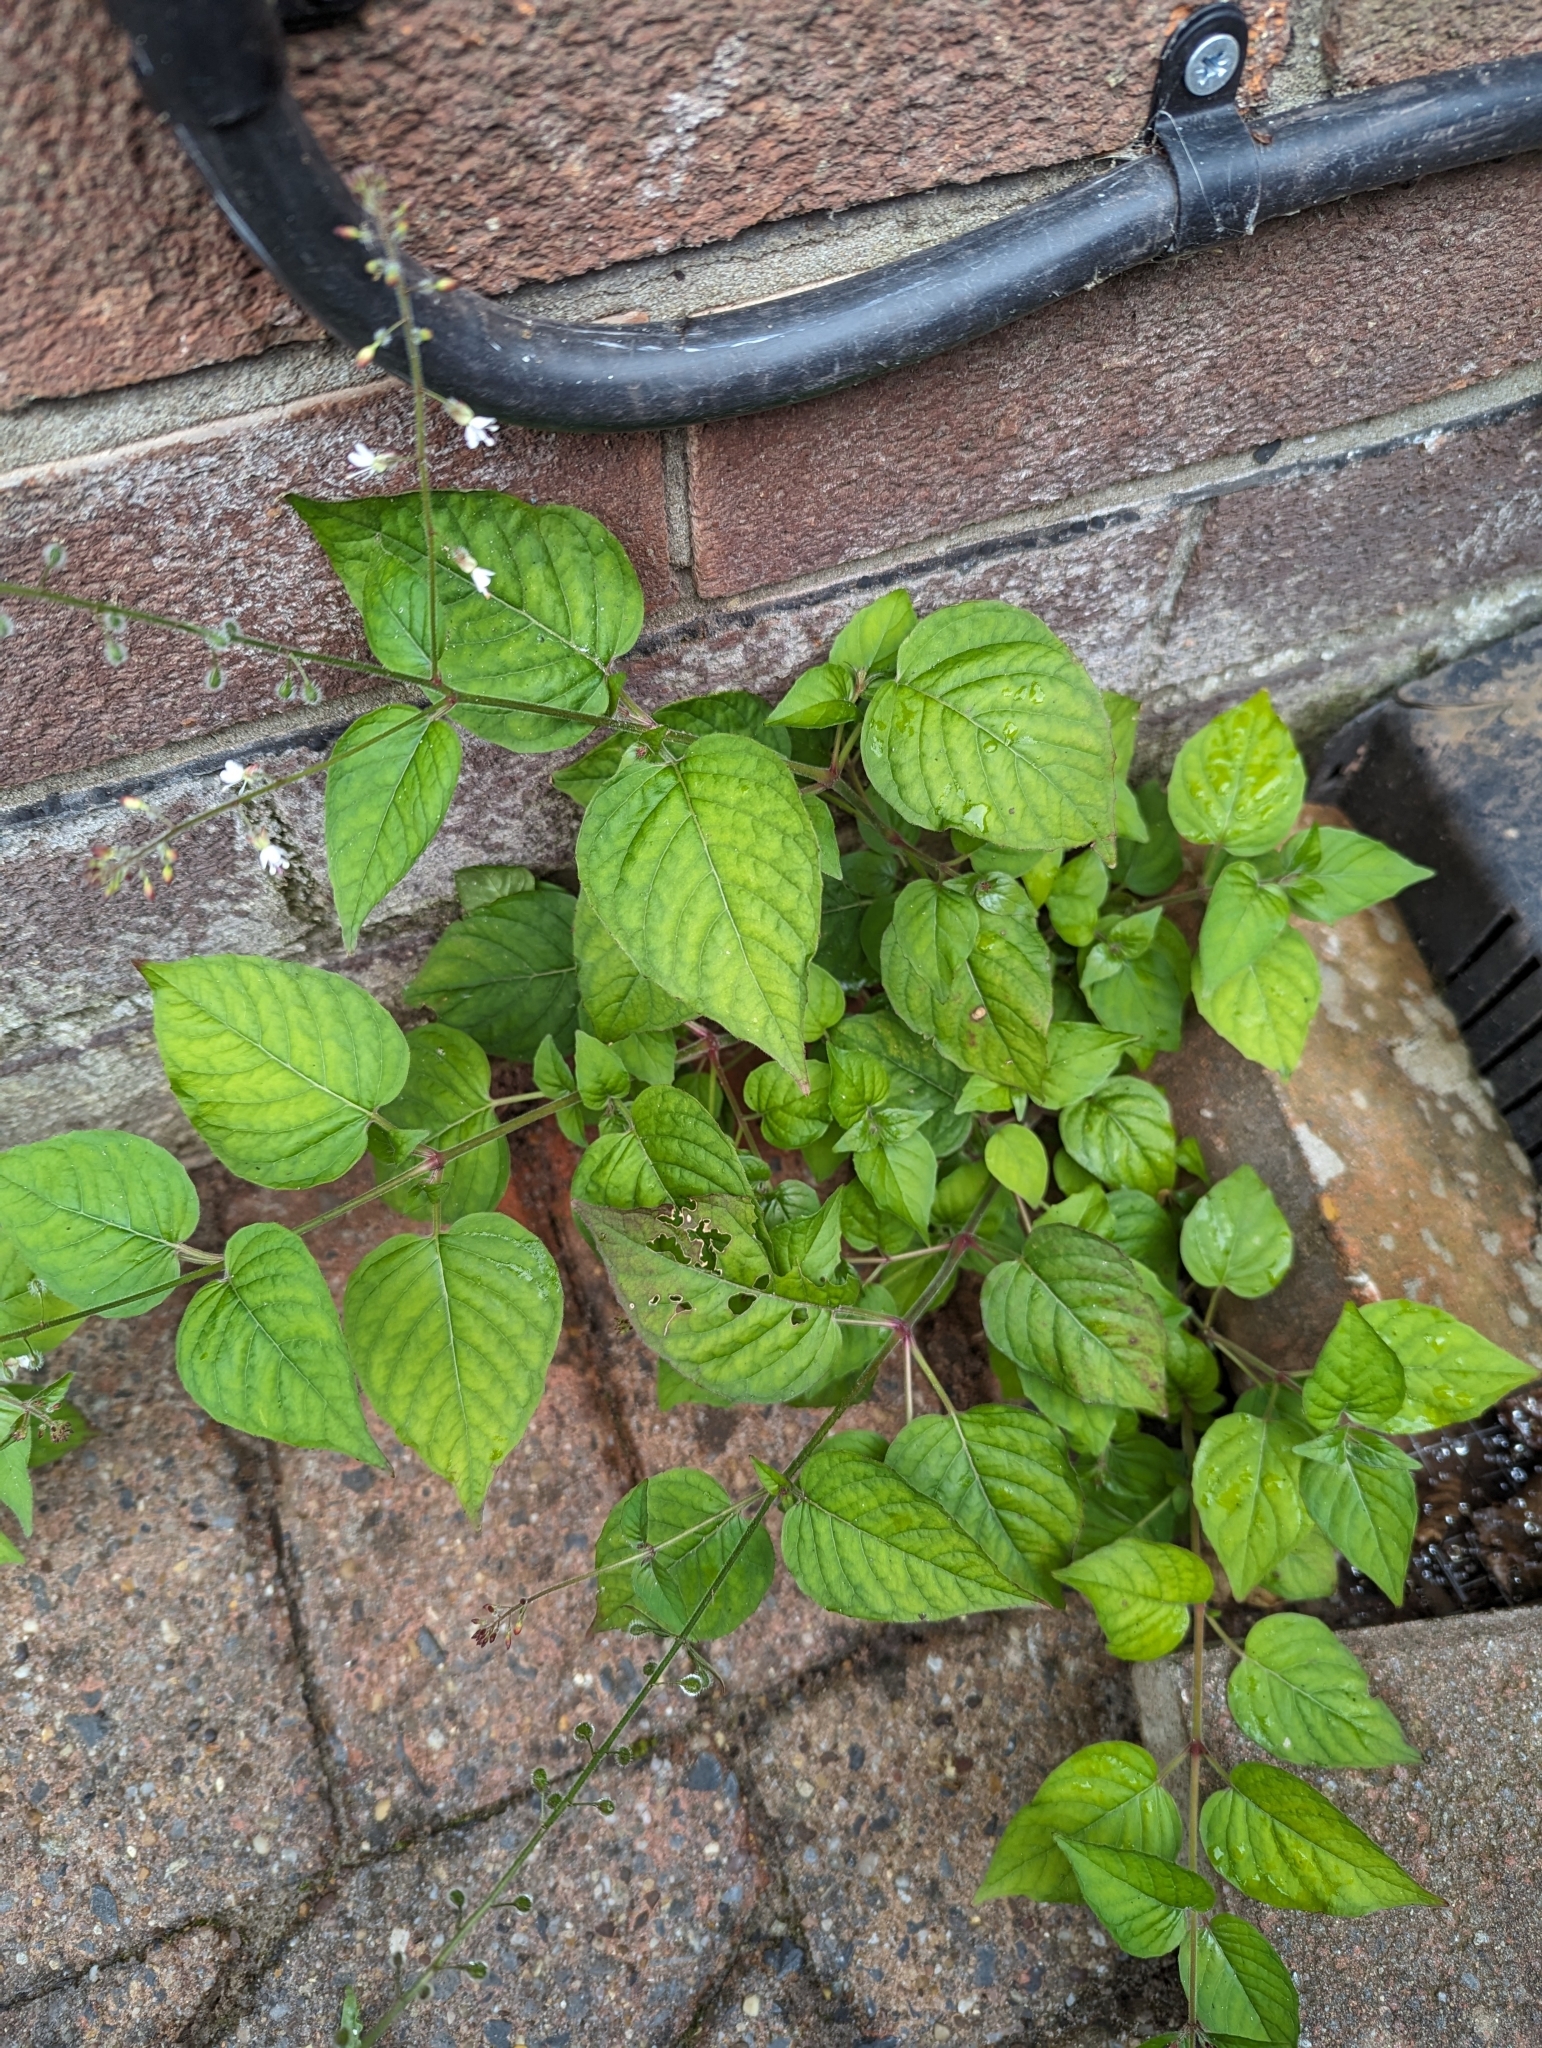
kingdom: Plantae
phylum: Tracheophyta
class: Magnoliopsida
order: Myrtales
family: Onagraceae
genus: Circaea
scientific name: Circaea lutetiana
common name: Enchanter's-nightshade
